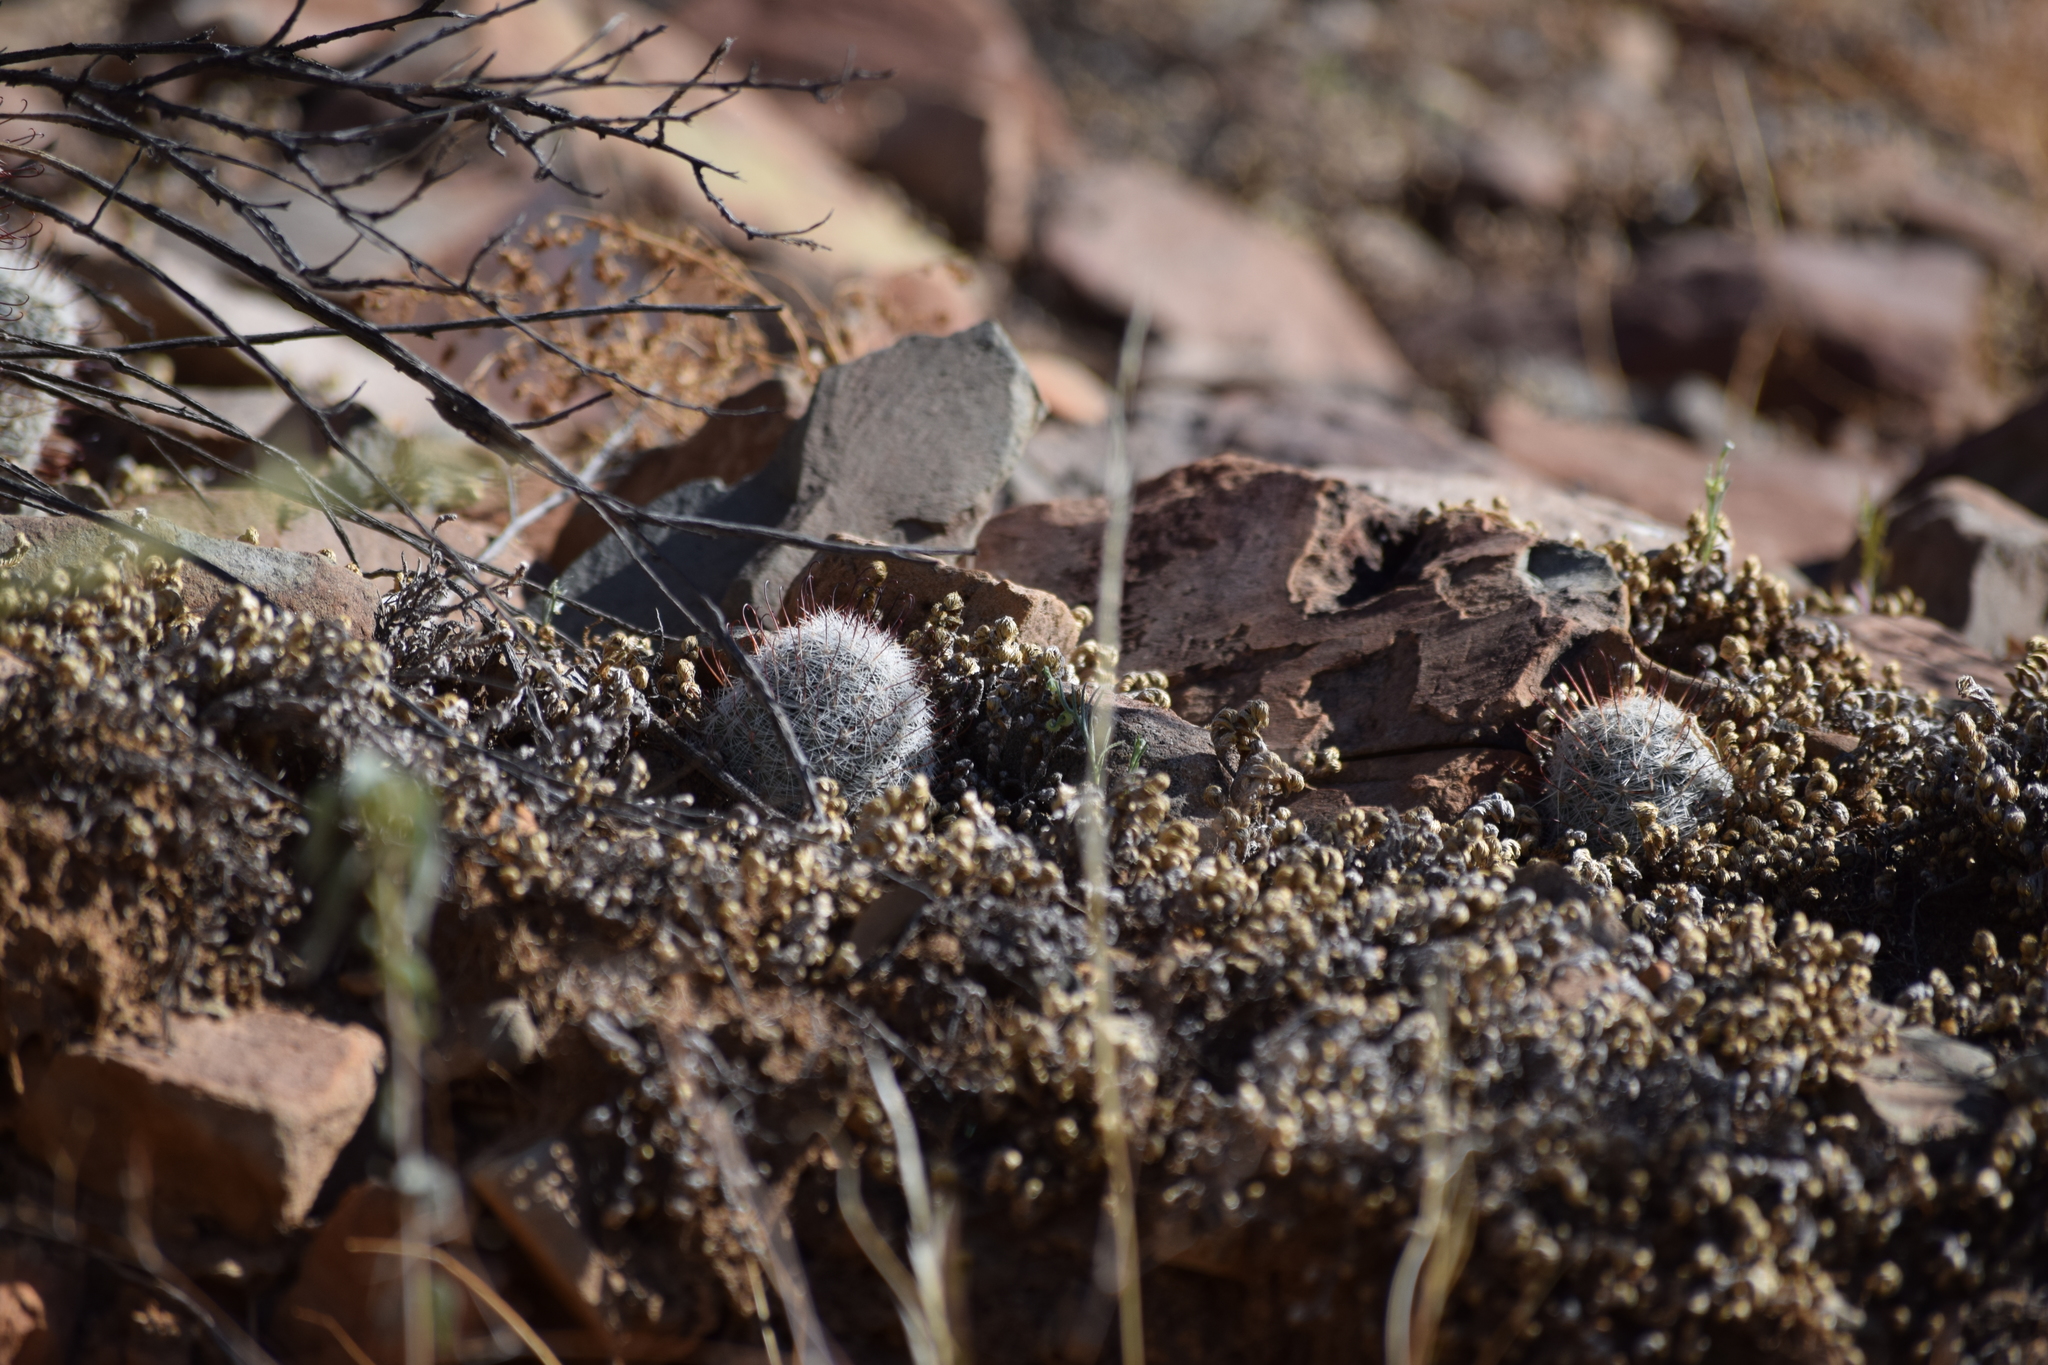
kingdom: Plantae
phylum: Tracheophyta
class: Magnoliopsida
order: Caryophyllales
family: Cactaceae
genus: Cochemiea
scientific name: Cochemiea grahamii
